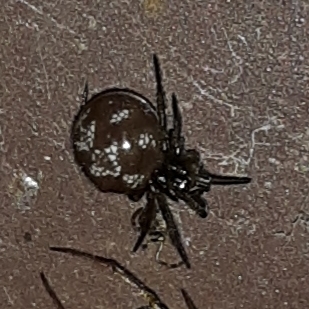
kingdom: Animalia
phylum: Arthropoda
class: Arachnida
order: Araneae
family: Theridiidae
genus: Steatoda
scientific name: Steatoda triangulosa
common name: Triangulate bud spider
